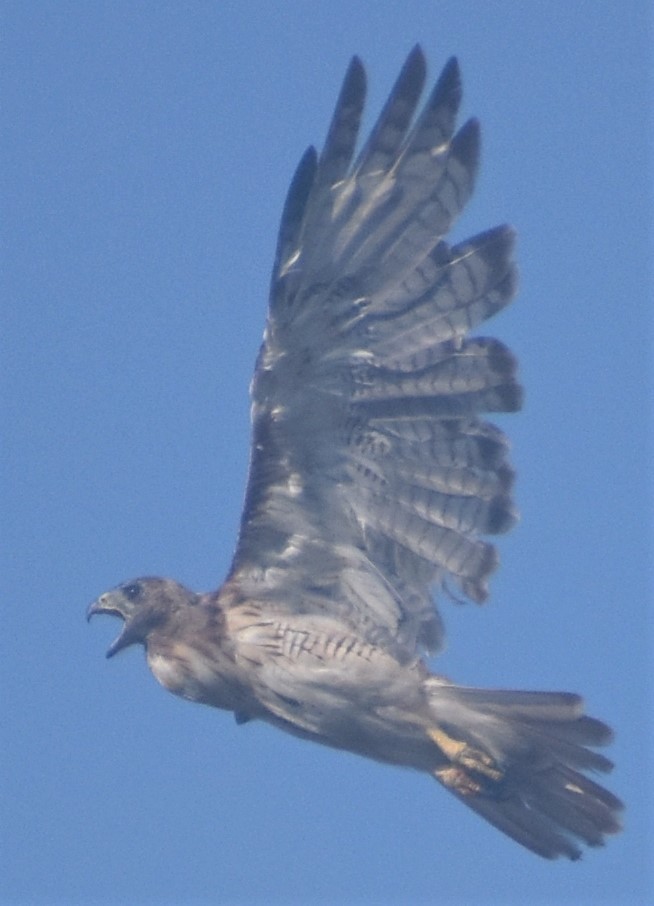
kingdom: Animalia
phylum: Chordata
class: Aves
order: Accipitriformes
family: Accipitridae
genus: Buteo
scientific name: Buteo jamaicensis
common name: Red-tailed hawk
